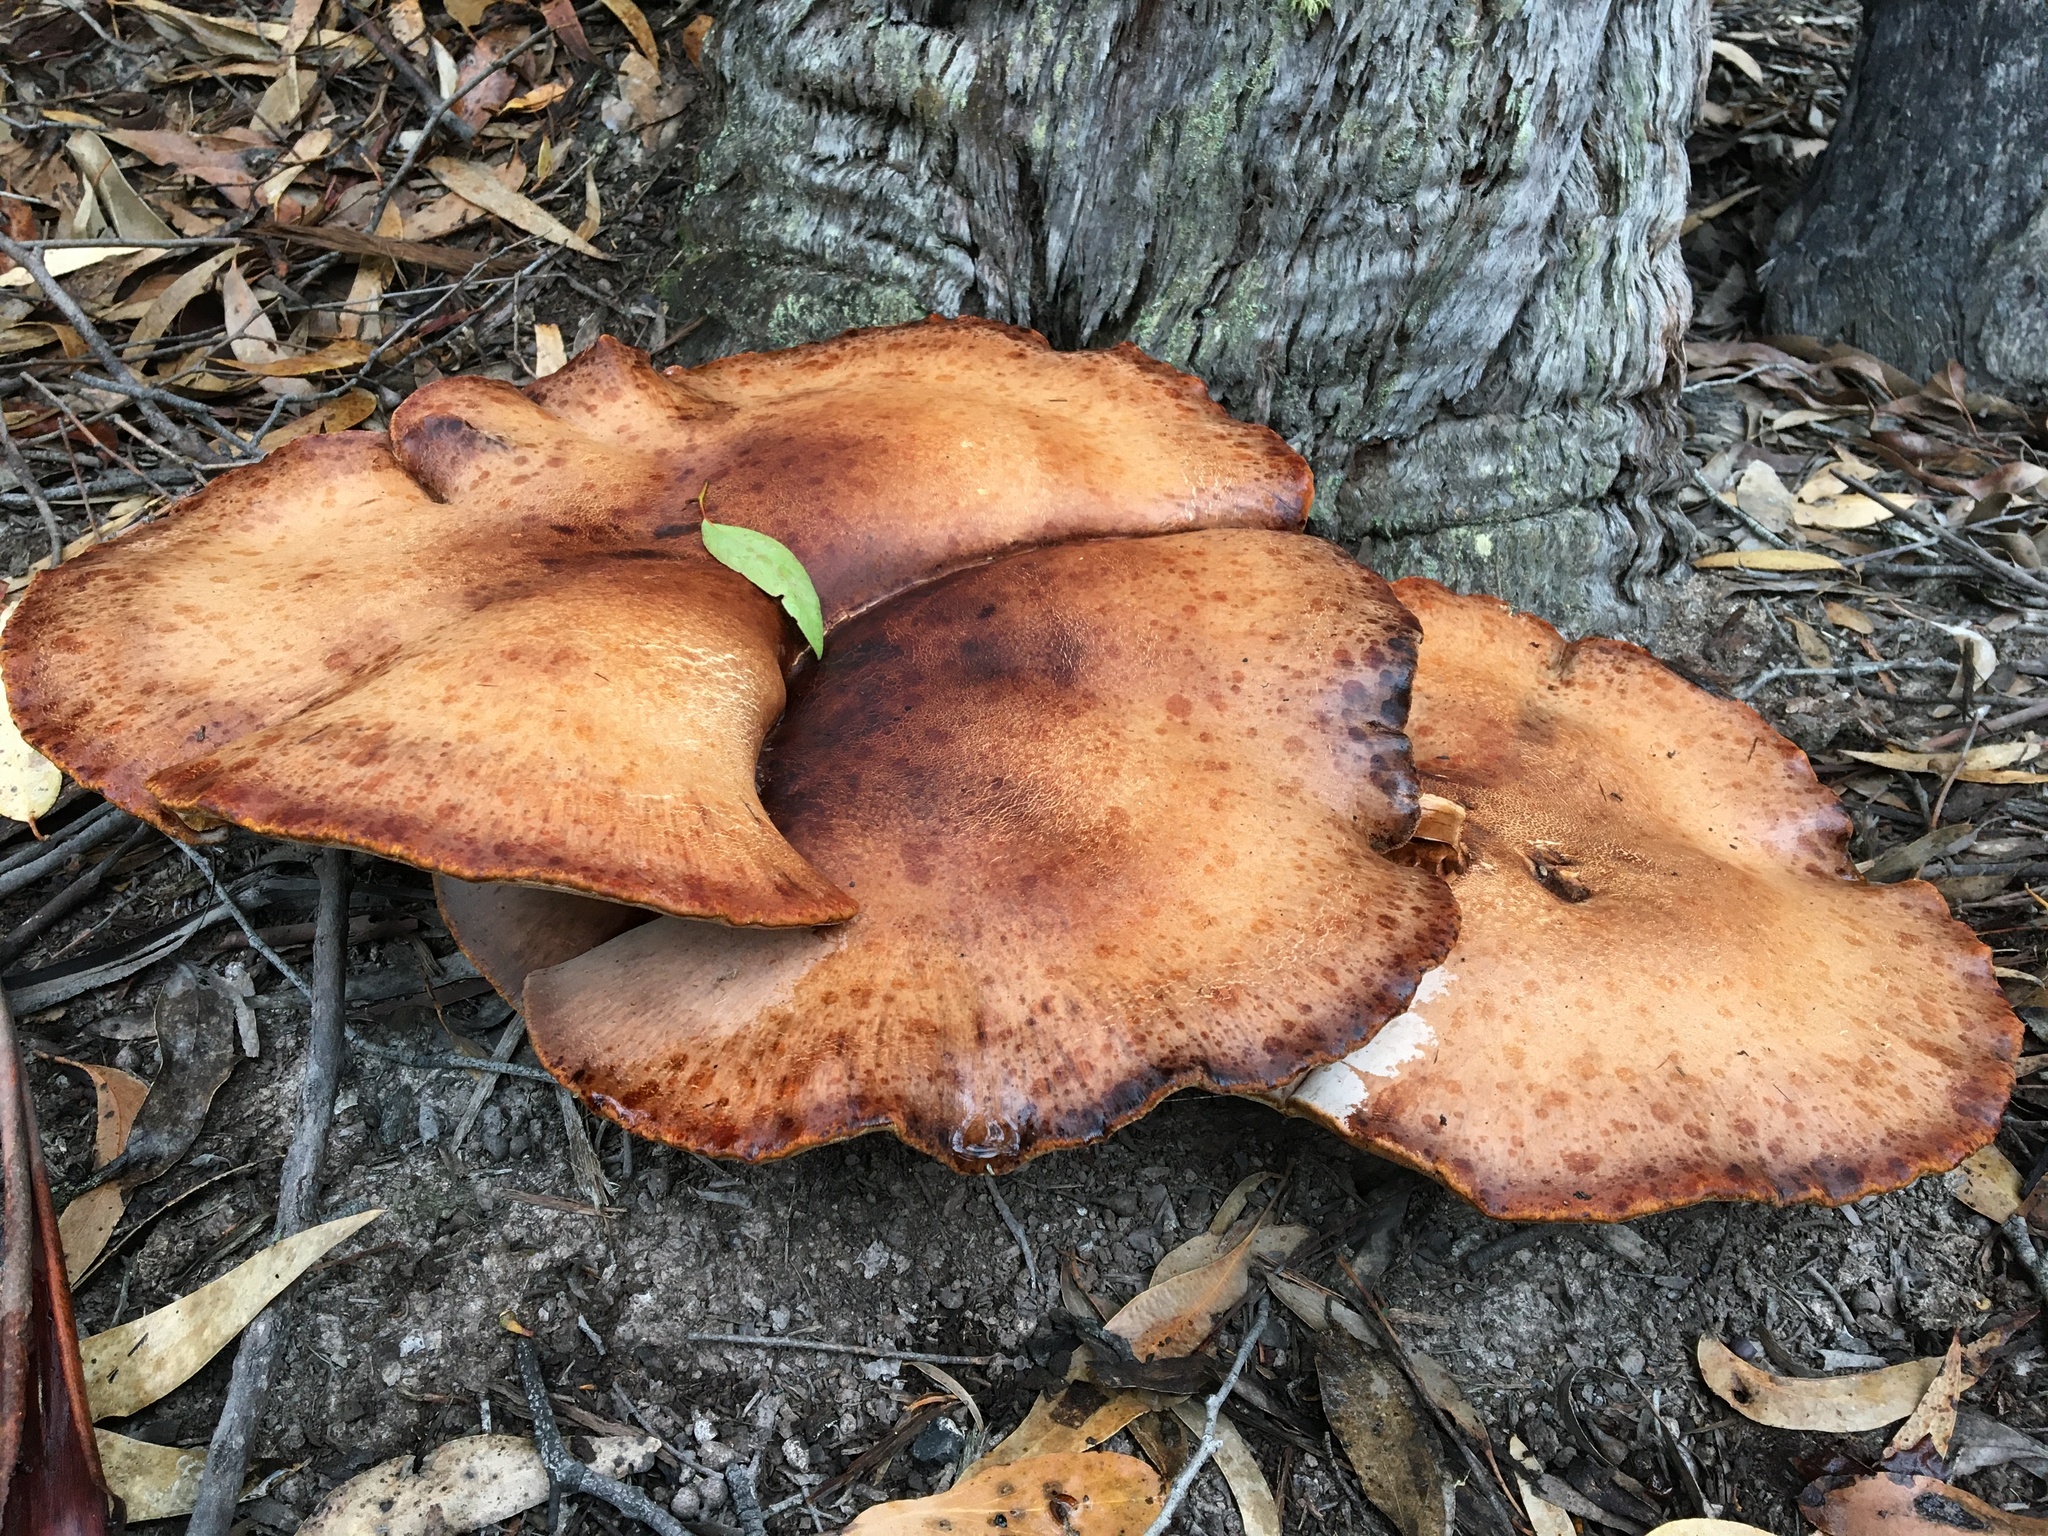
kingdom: Fungi
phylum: Basidiomycota
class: Agaricomycetes
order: Polyporales
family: Fomitopsidaceae
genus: Fomitopsis
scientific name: Fomitopsis
